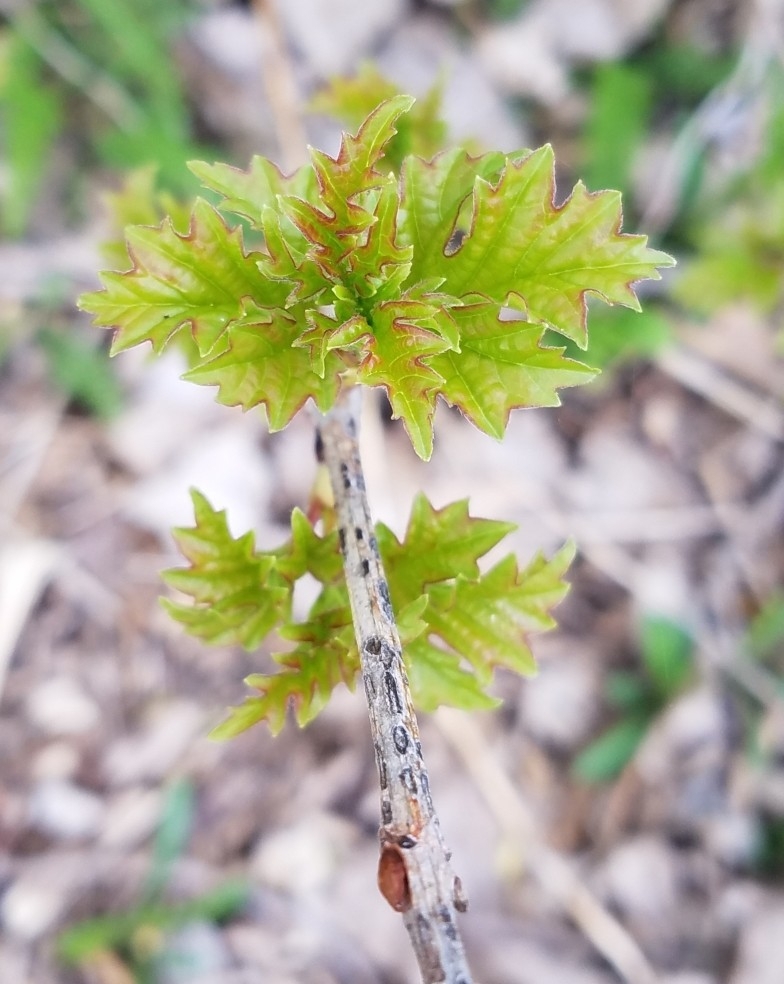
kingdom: Plantae
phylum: Tracheophyta
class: Magnoliopsida
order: Dipsacales
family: Viburnaceae
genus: Viburnum
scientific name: Viburnum acerifolium
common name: Dockmackie
